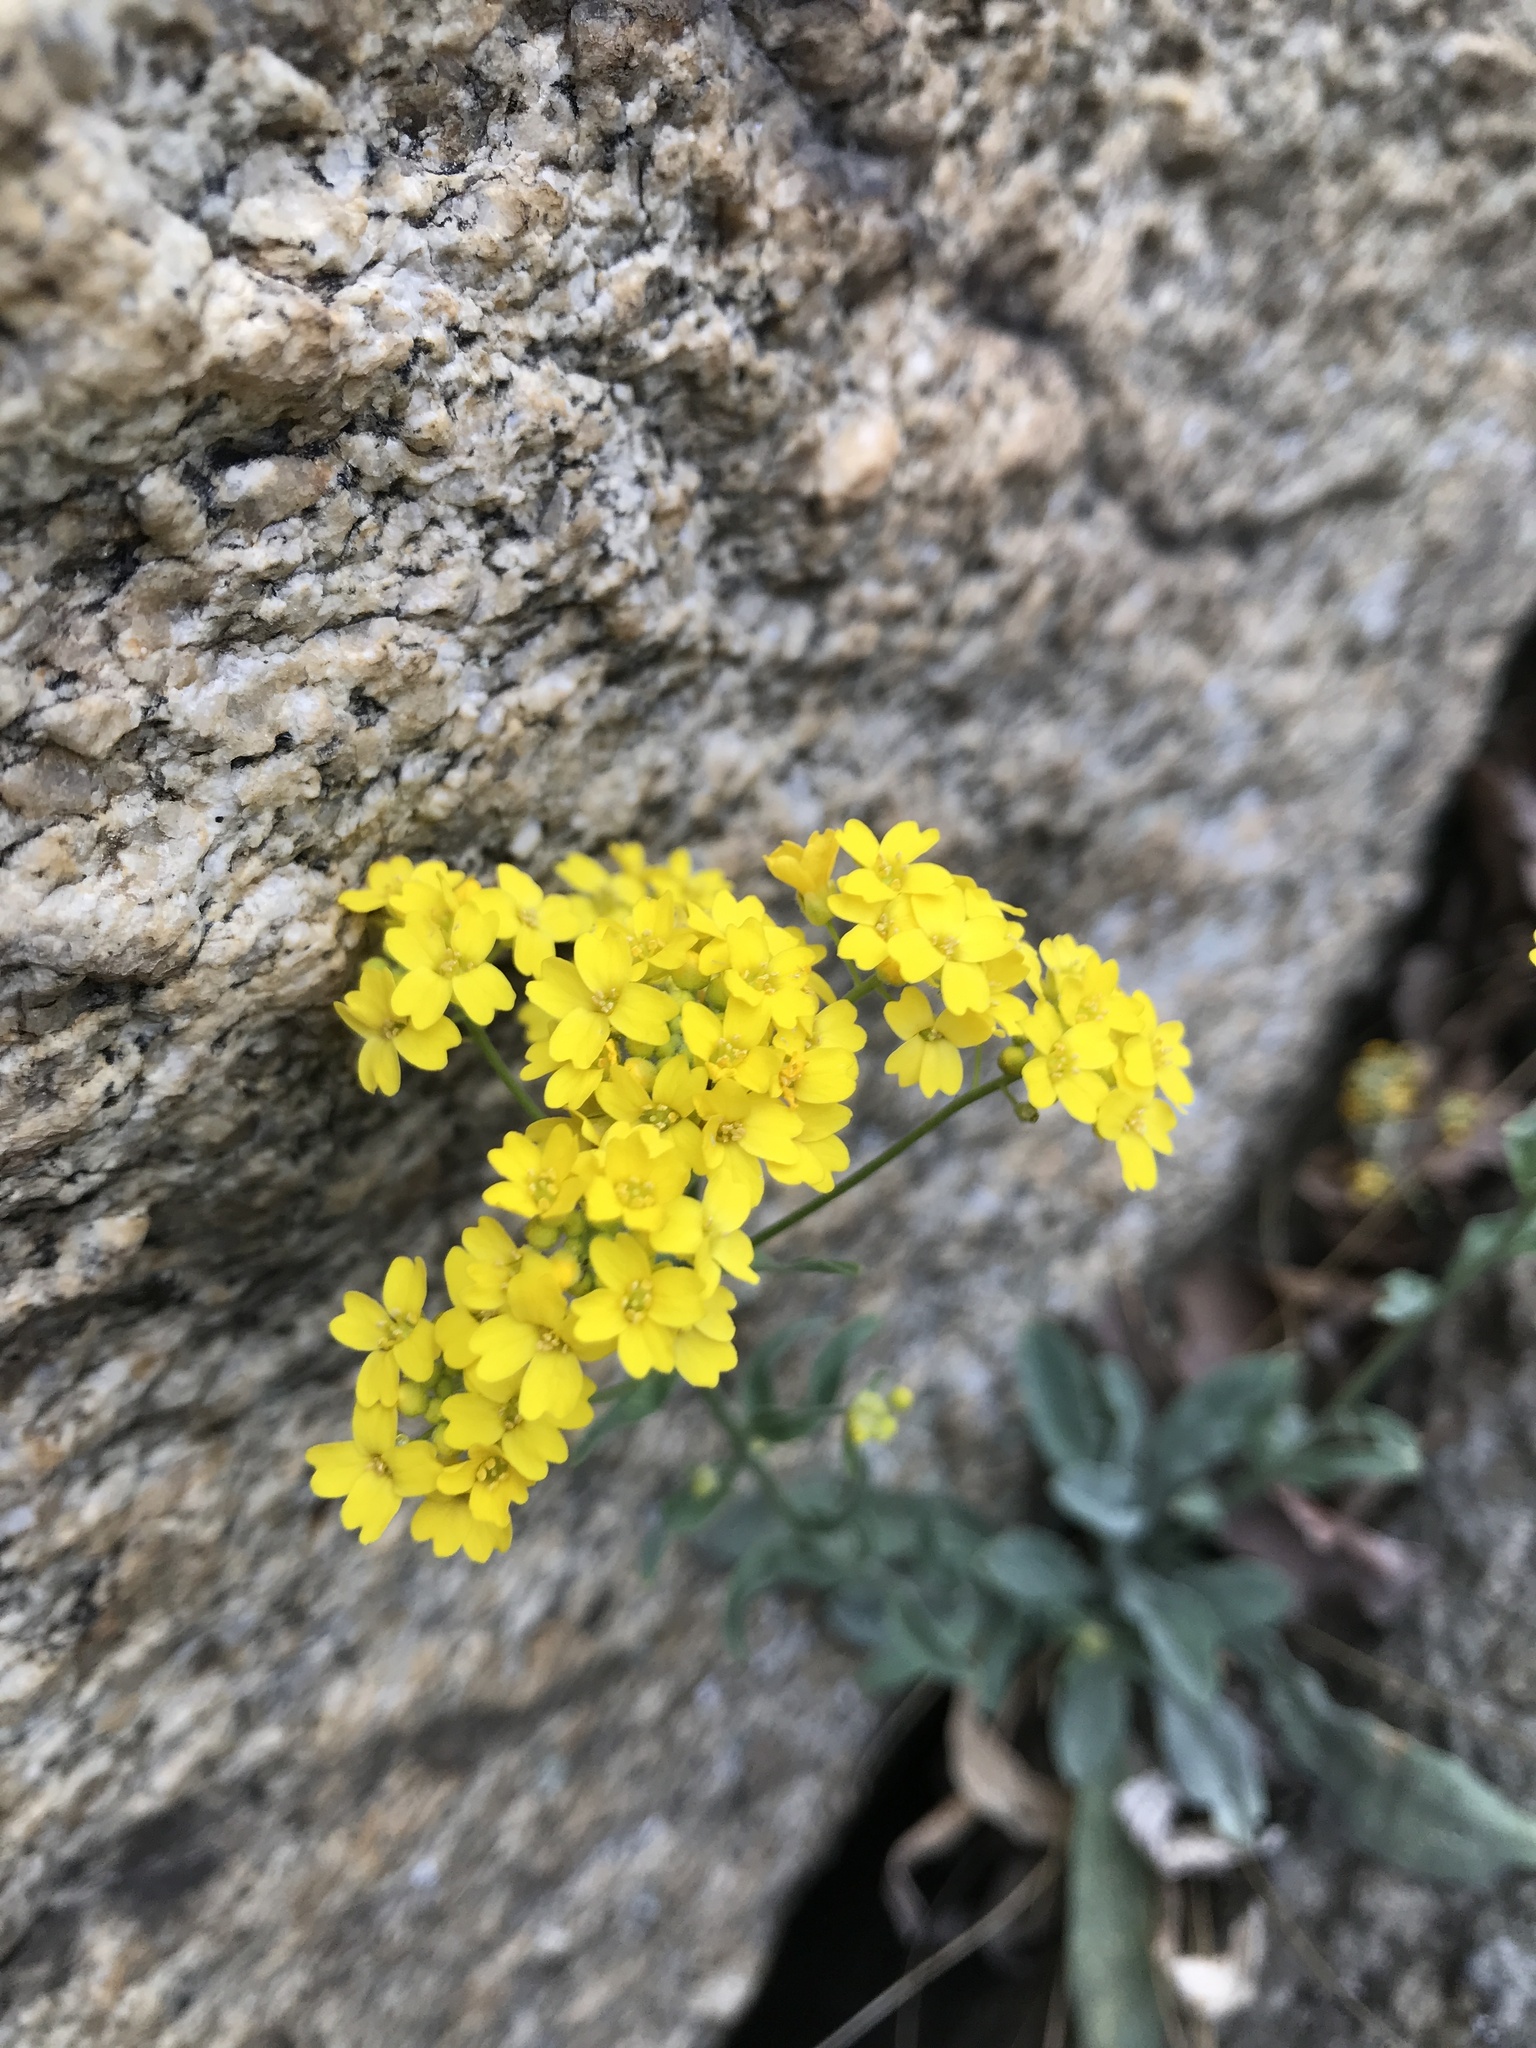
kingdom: Plantae
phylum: Tracheophyta
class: Magnoliopsida
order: Brassicales
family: Brassicaceae
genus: Aurinia
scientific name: Aurinia saxatilis
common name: Golden-tuft alyssum
